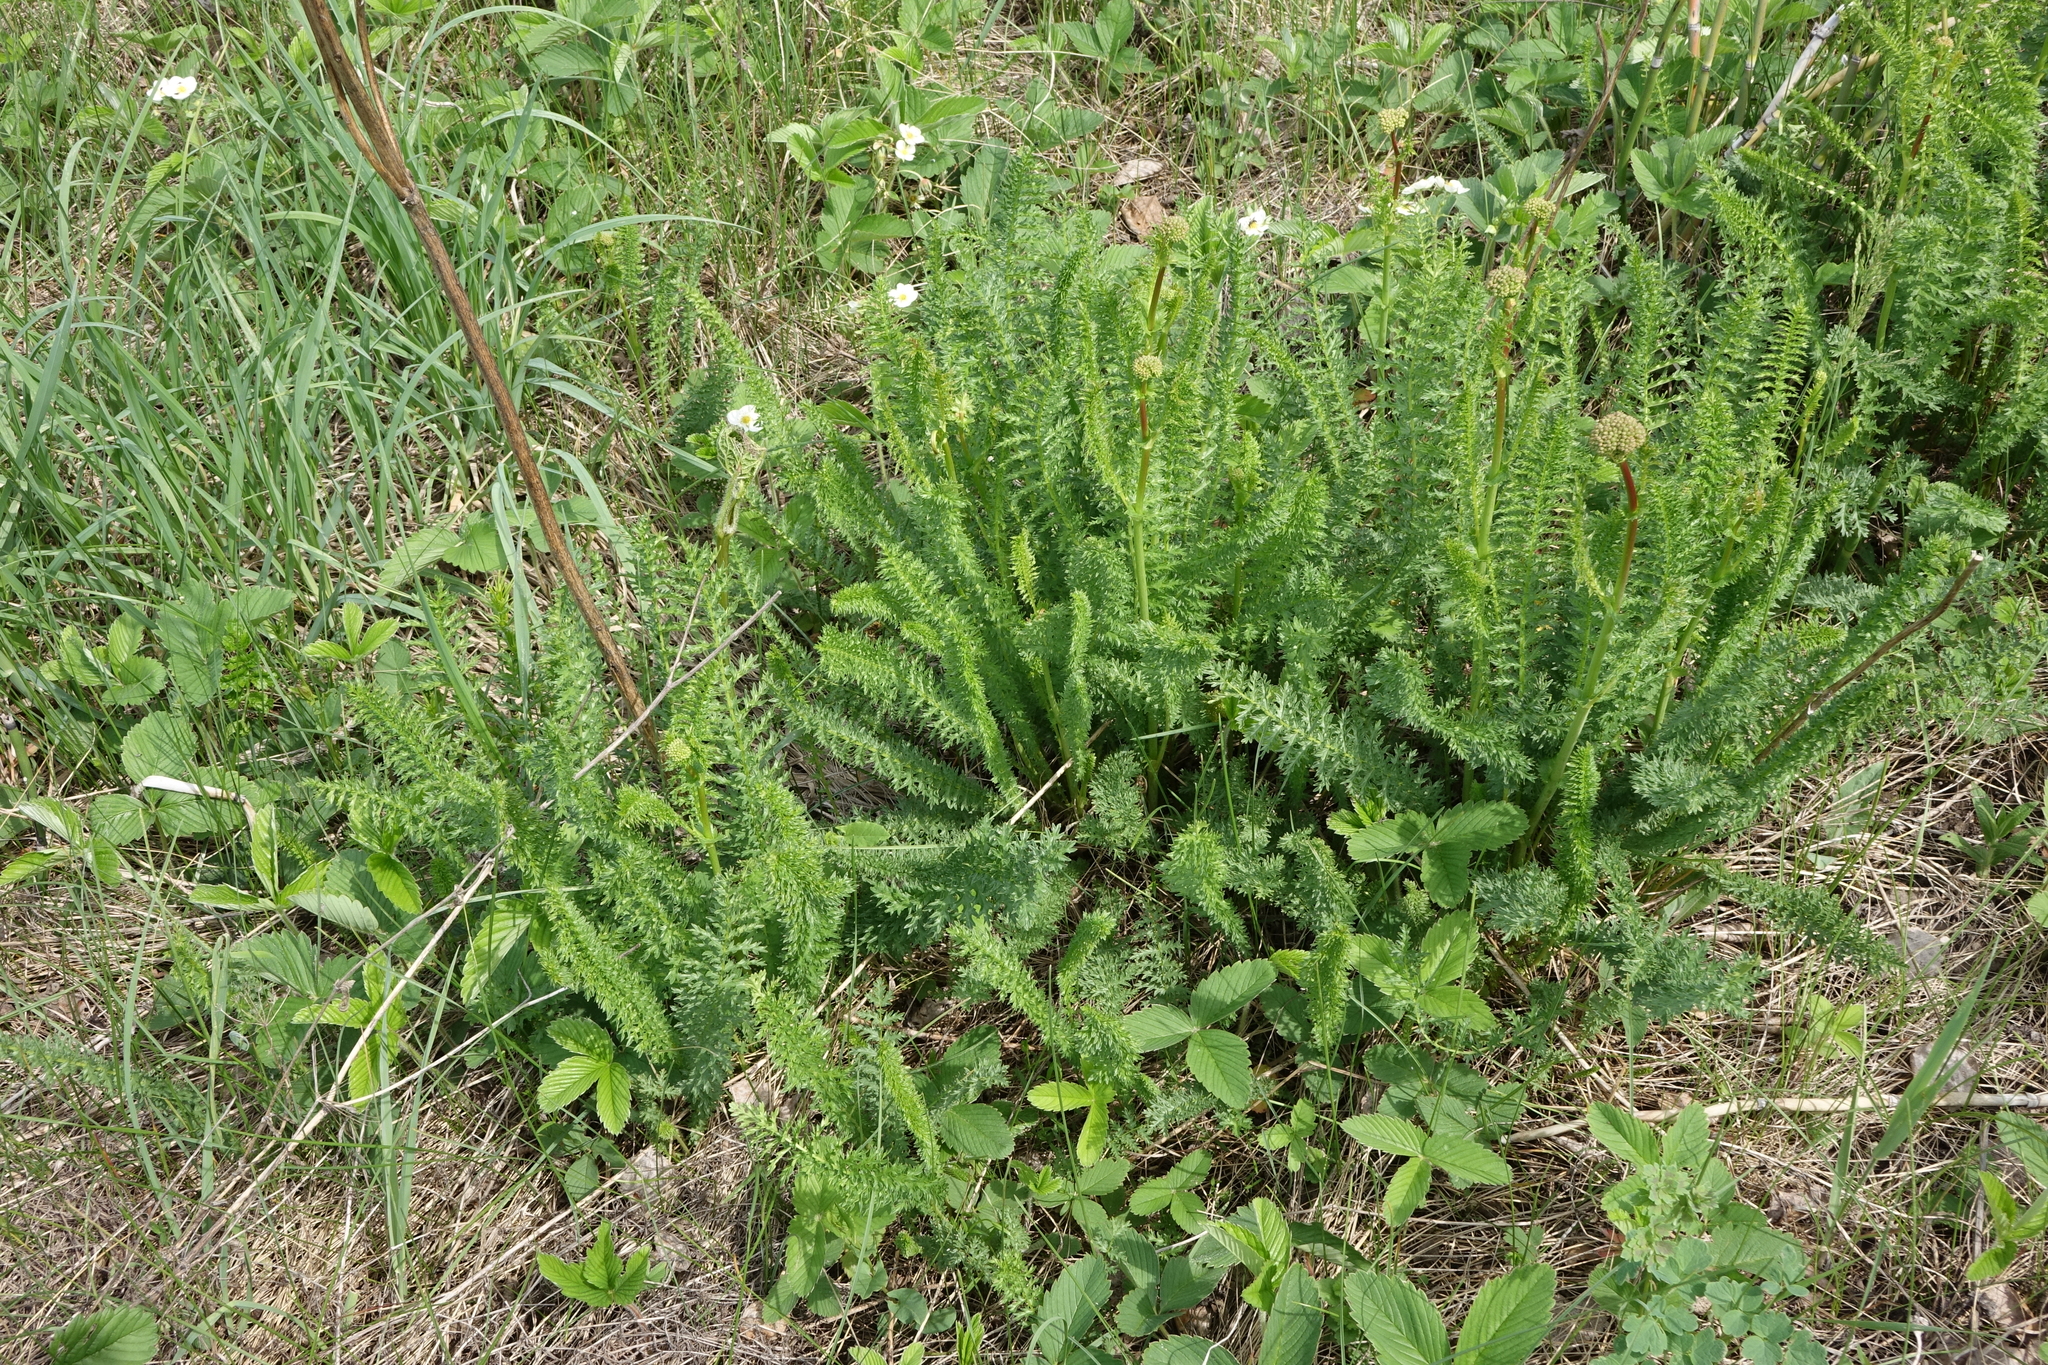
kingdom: Plantae
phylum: Tracheophyta
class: Magnoliopsida
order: Rosales
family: Rosaceae
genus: Filipendula
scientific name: Filipendula vulgaris
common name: Dropwort
